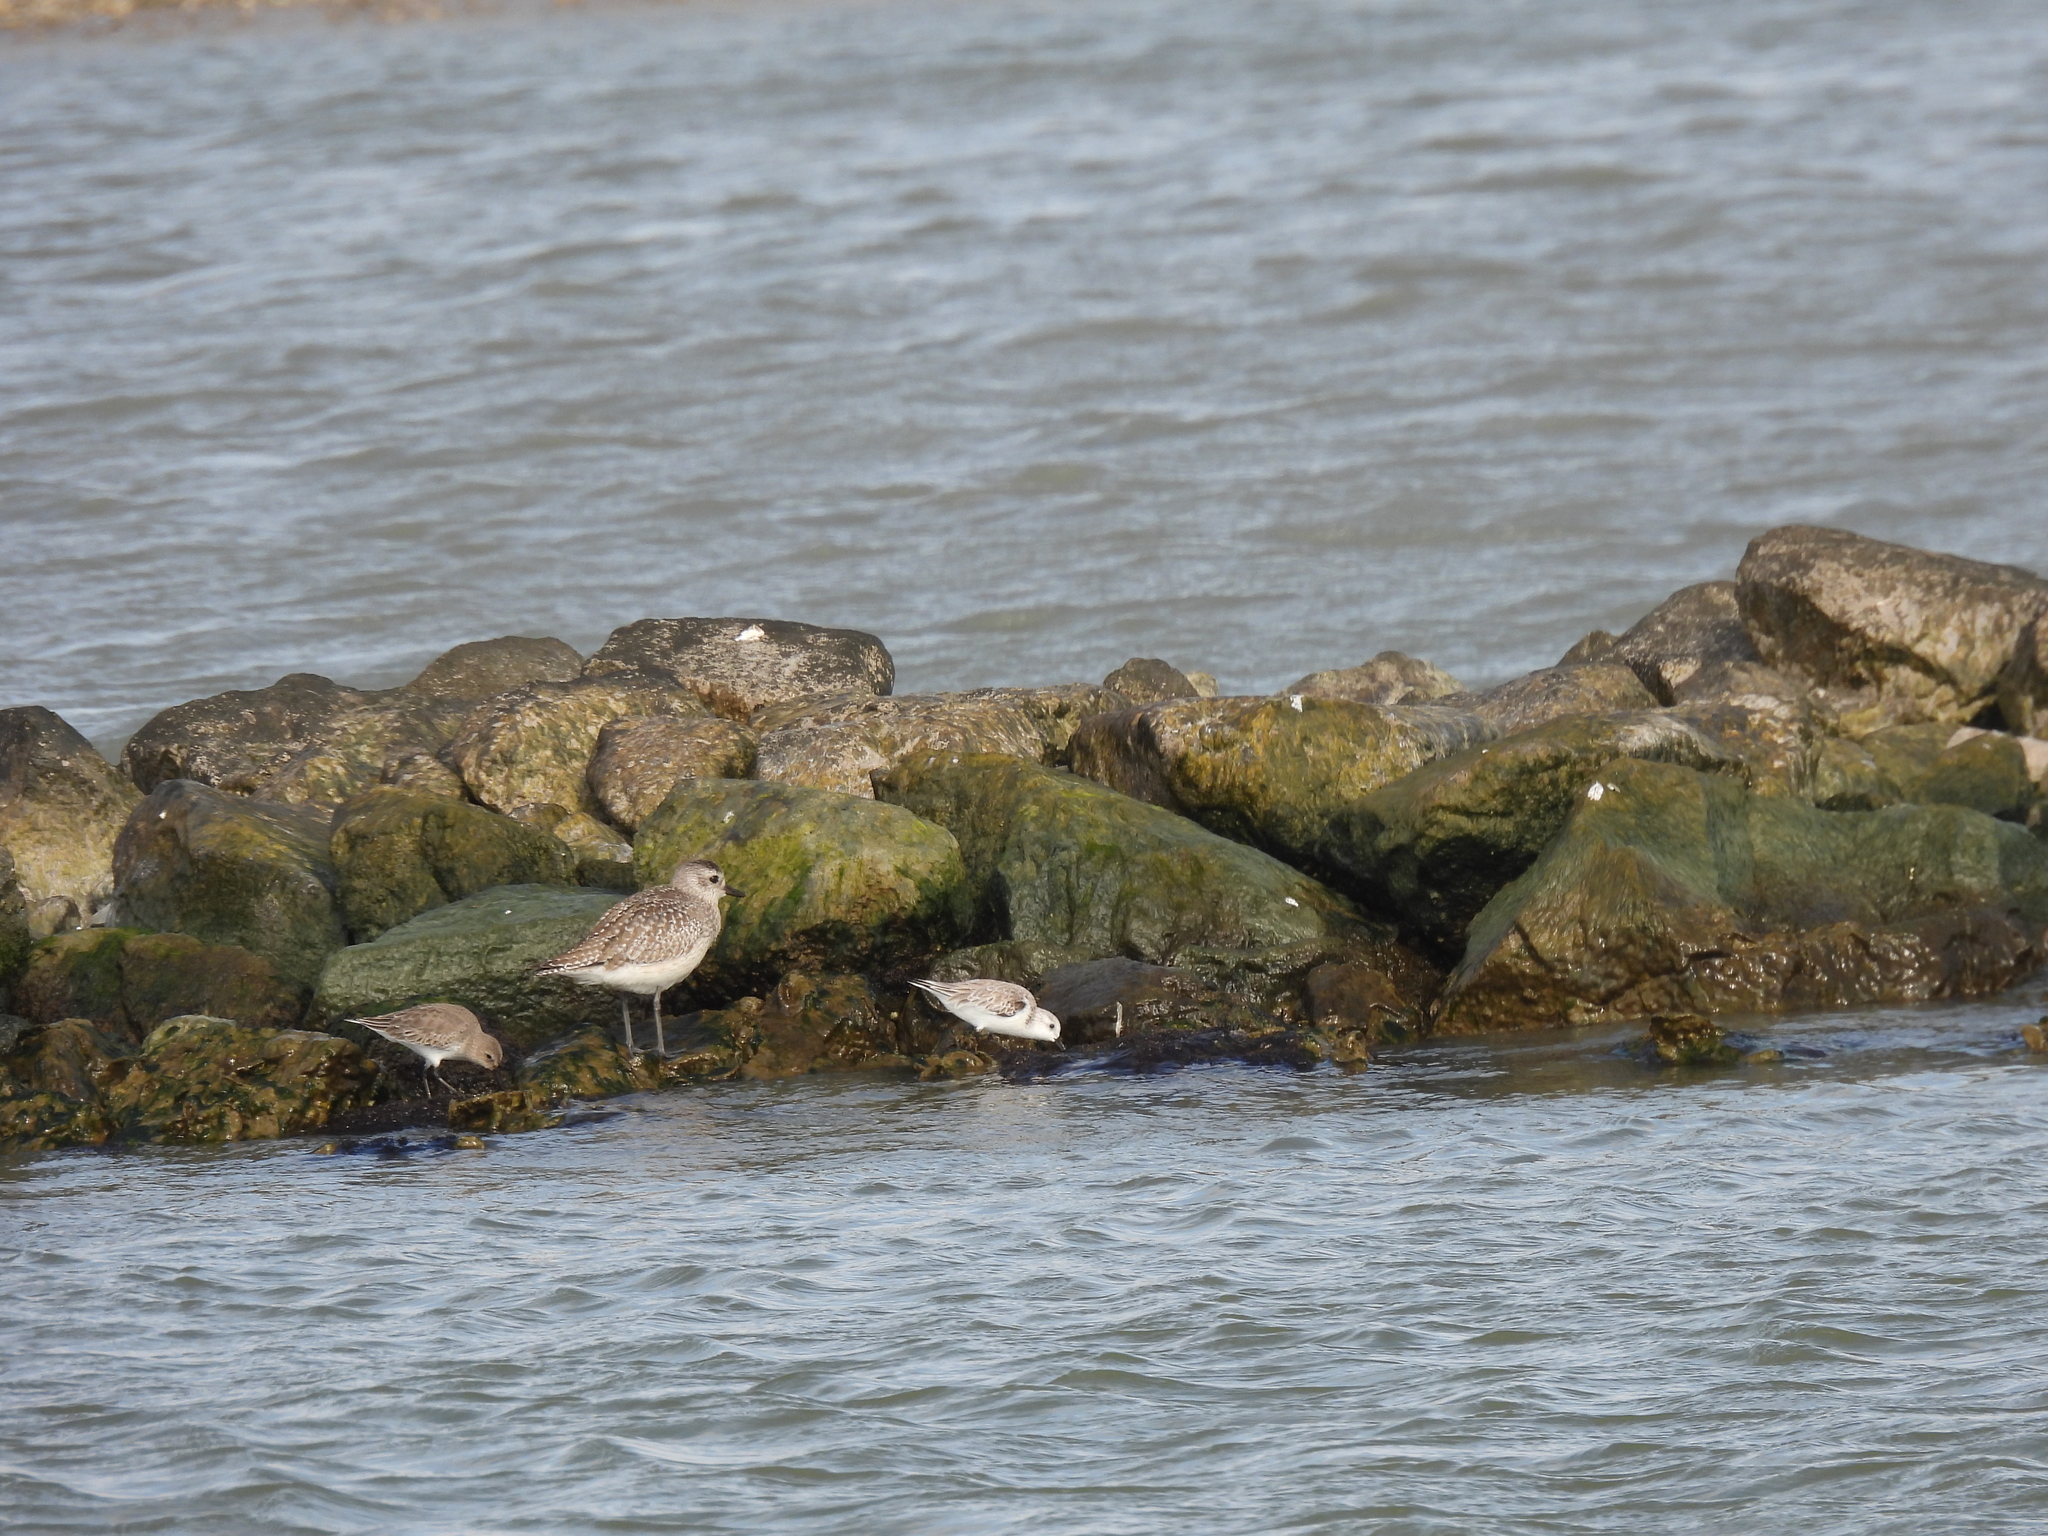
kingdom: Animalia
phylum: Chordata
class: Aves
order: Charadriiformes
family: Scolopacidae
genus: Calidris
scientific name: Calidris alba
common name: Sanderling
